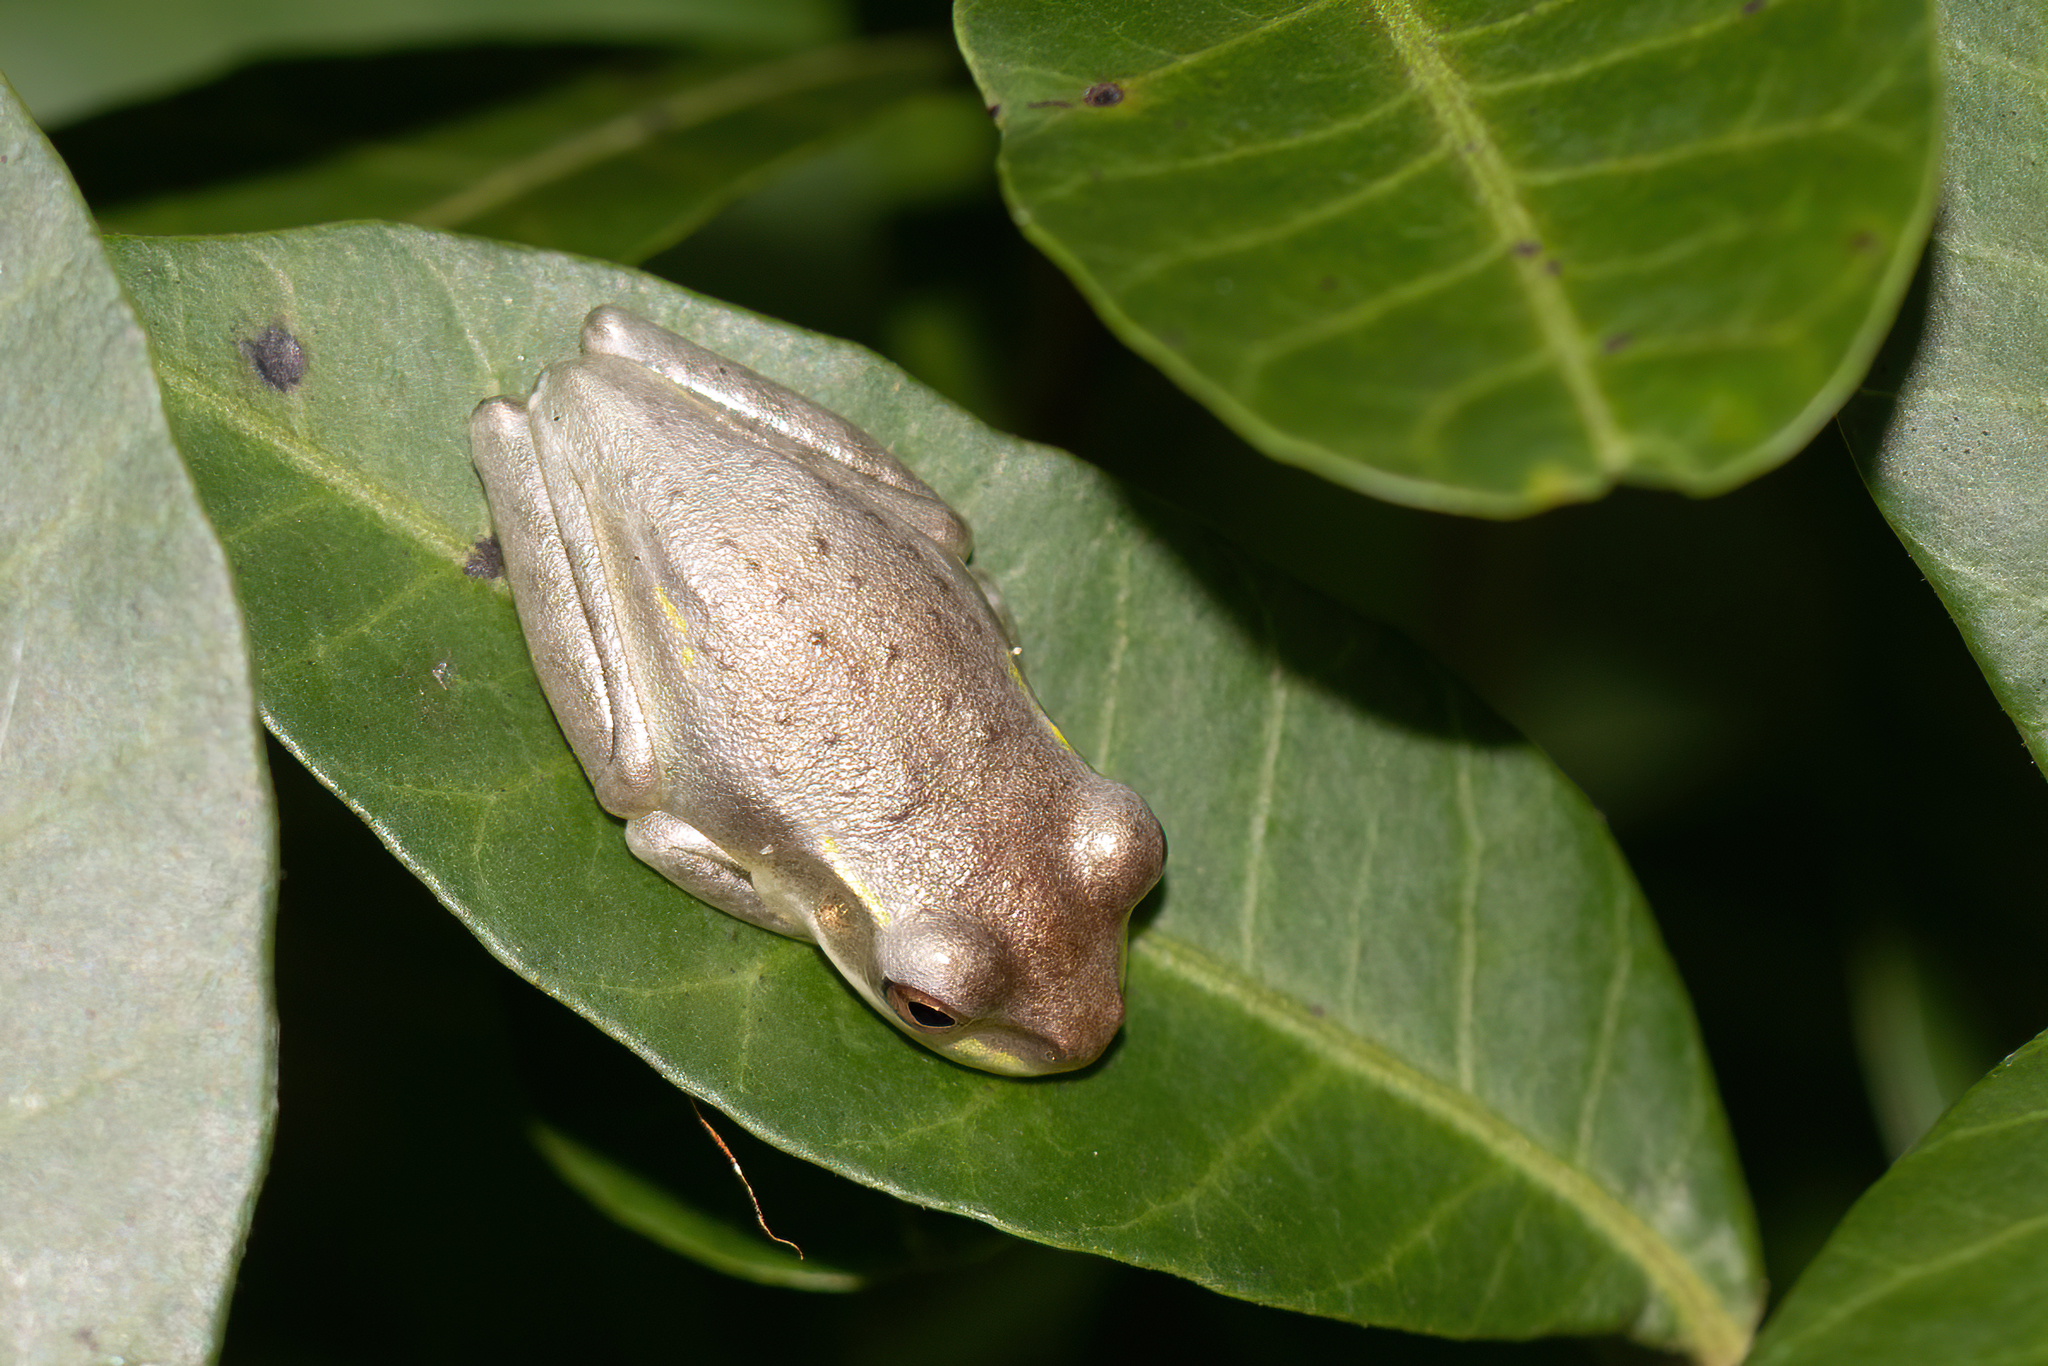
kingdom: Animalia
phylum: Chordata
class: Amphibia
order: Anura
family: Hylidae
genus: Osteopilus
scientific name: Osteopilus septentrionalis
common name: Cuban treefrog
